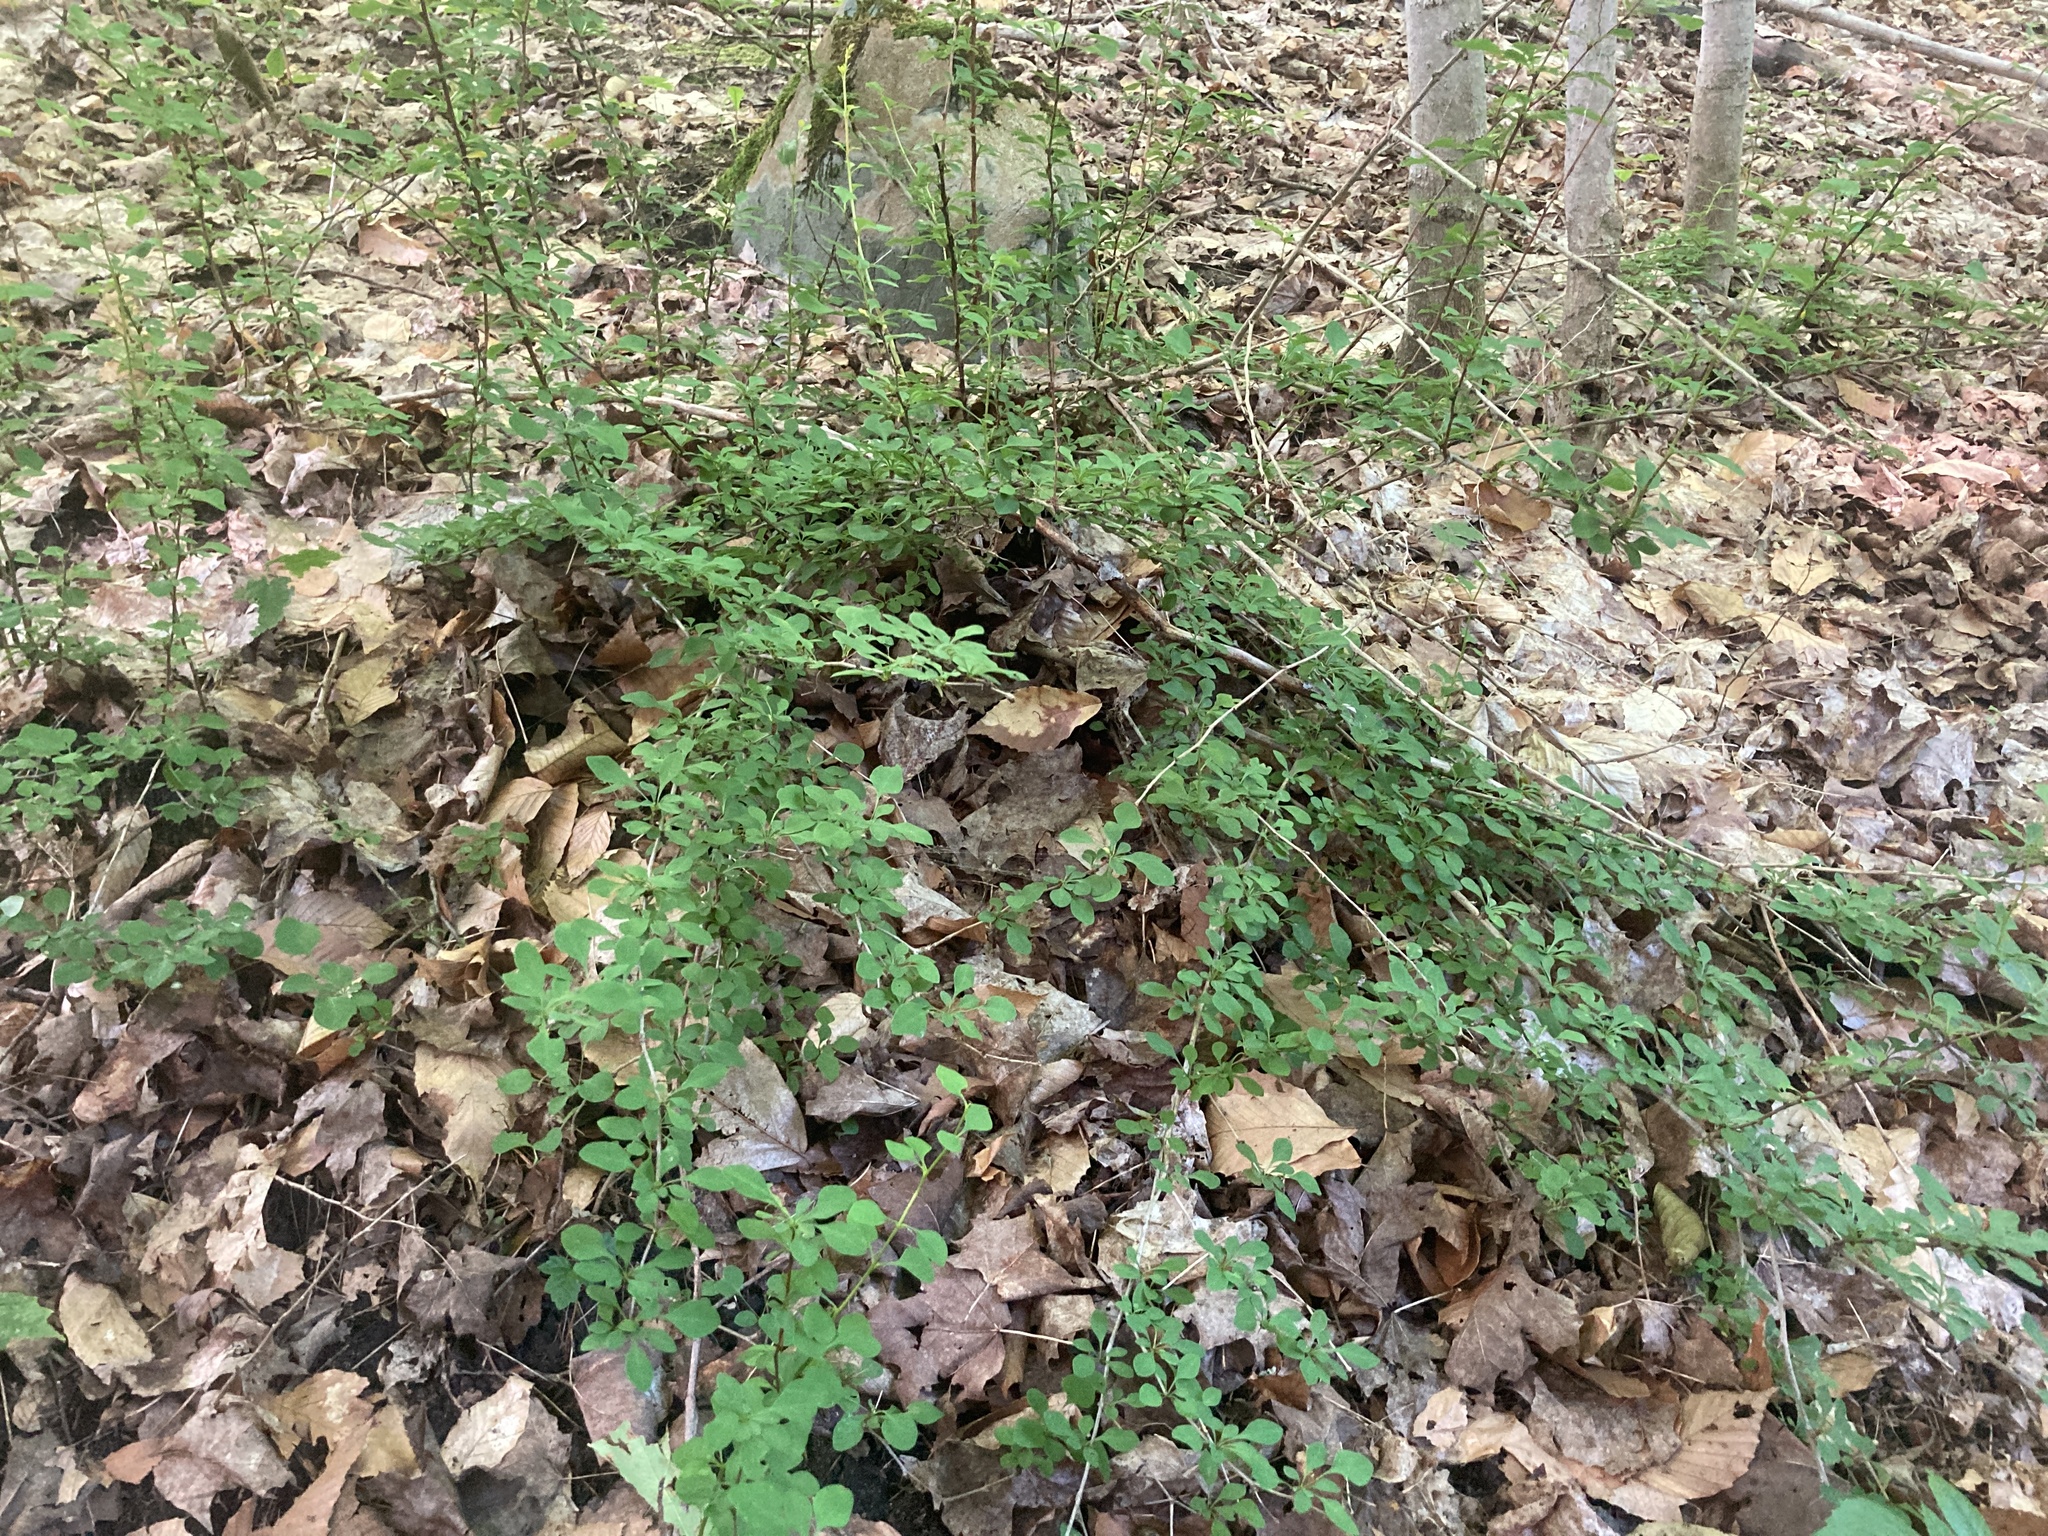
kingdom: Plantae
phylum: Tracheophyta
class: Magnoliopsida
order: Ranunculales
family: Berberidaceae
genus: Berberis
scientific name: Berberis thunbergii
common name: Japanese barberry
